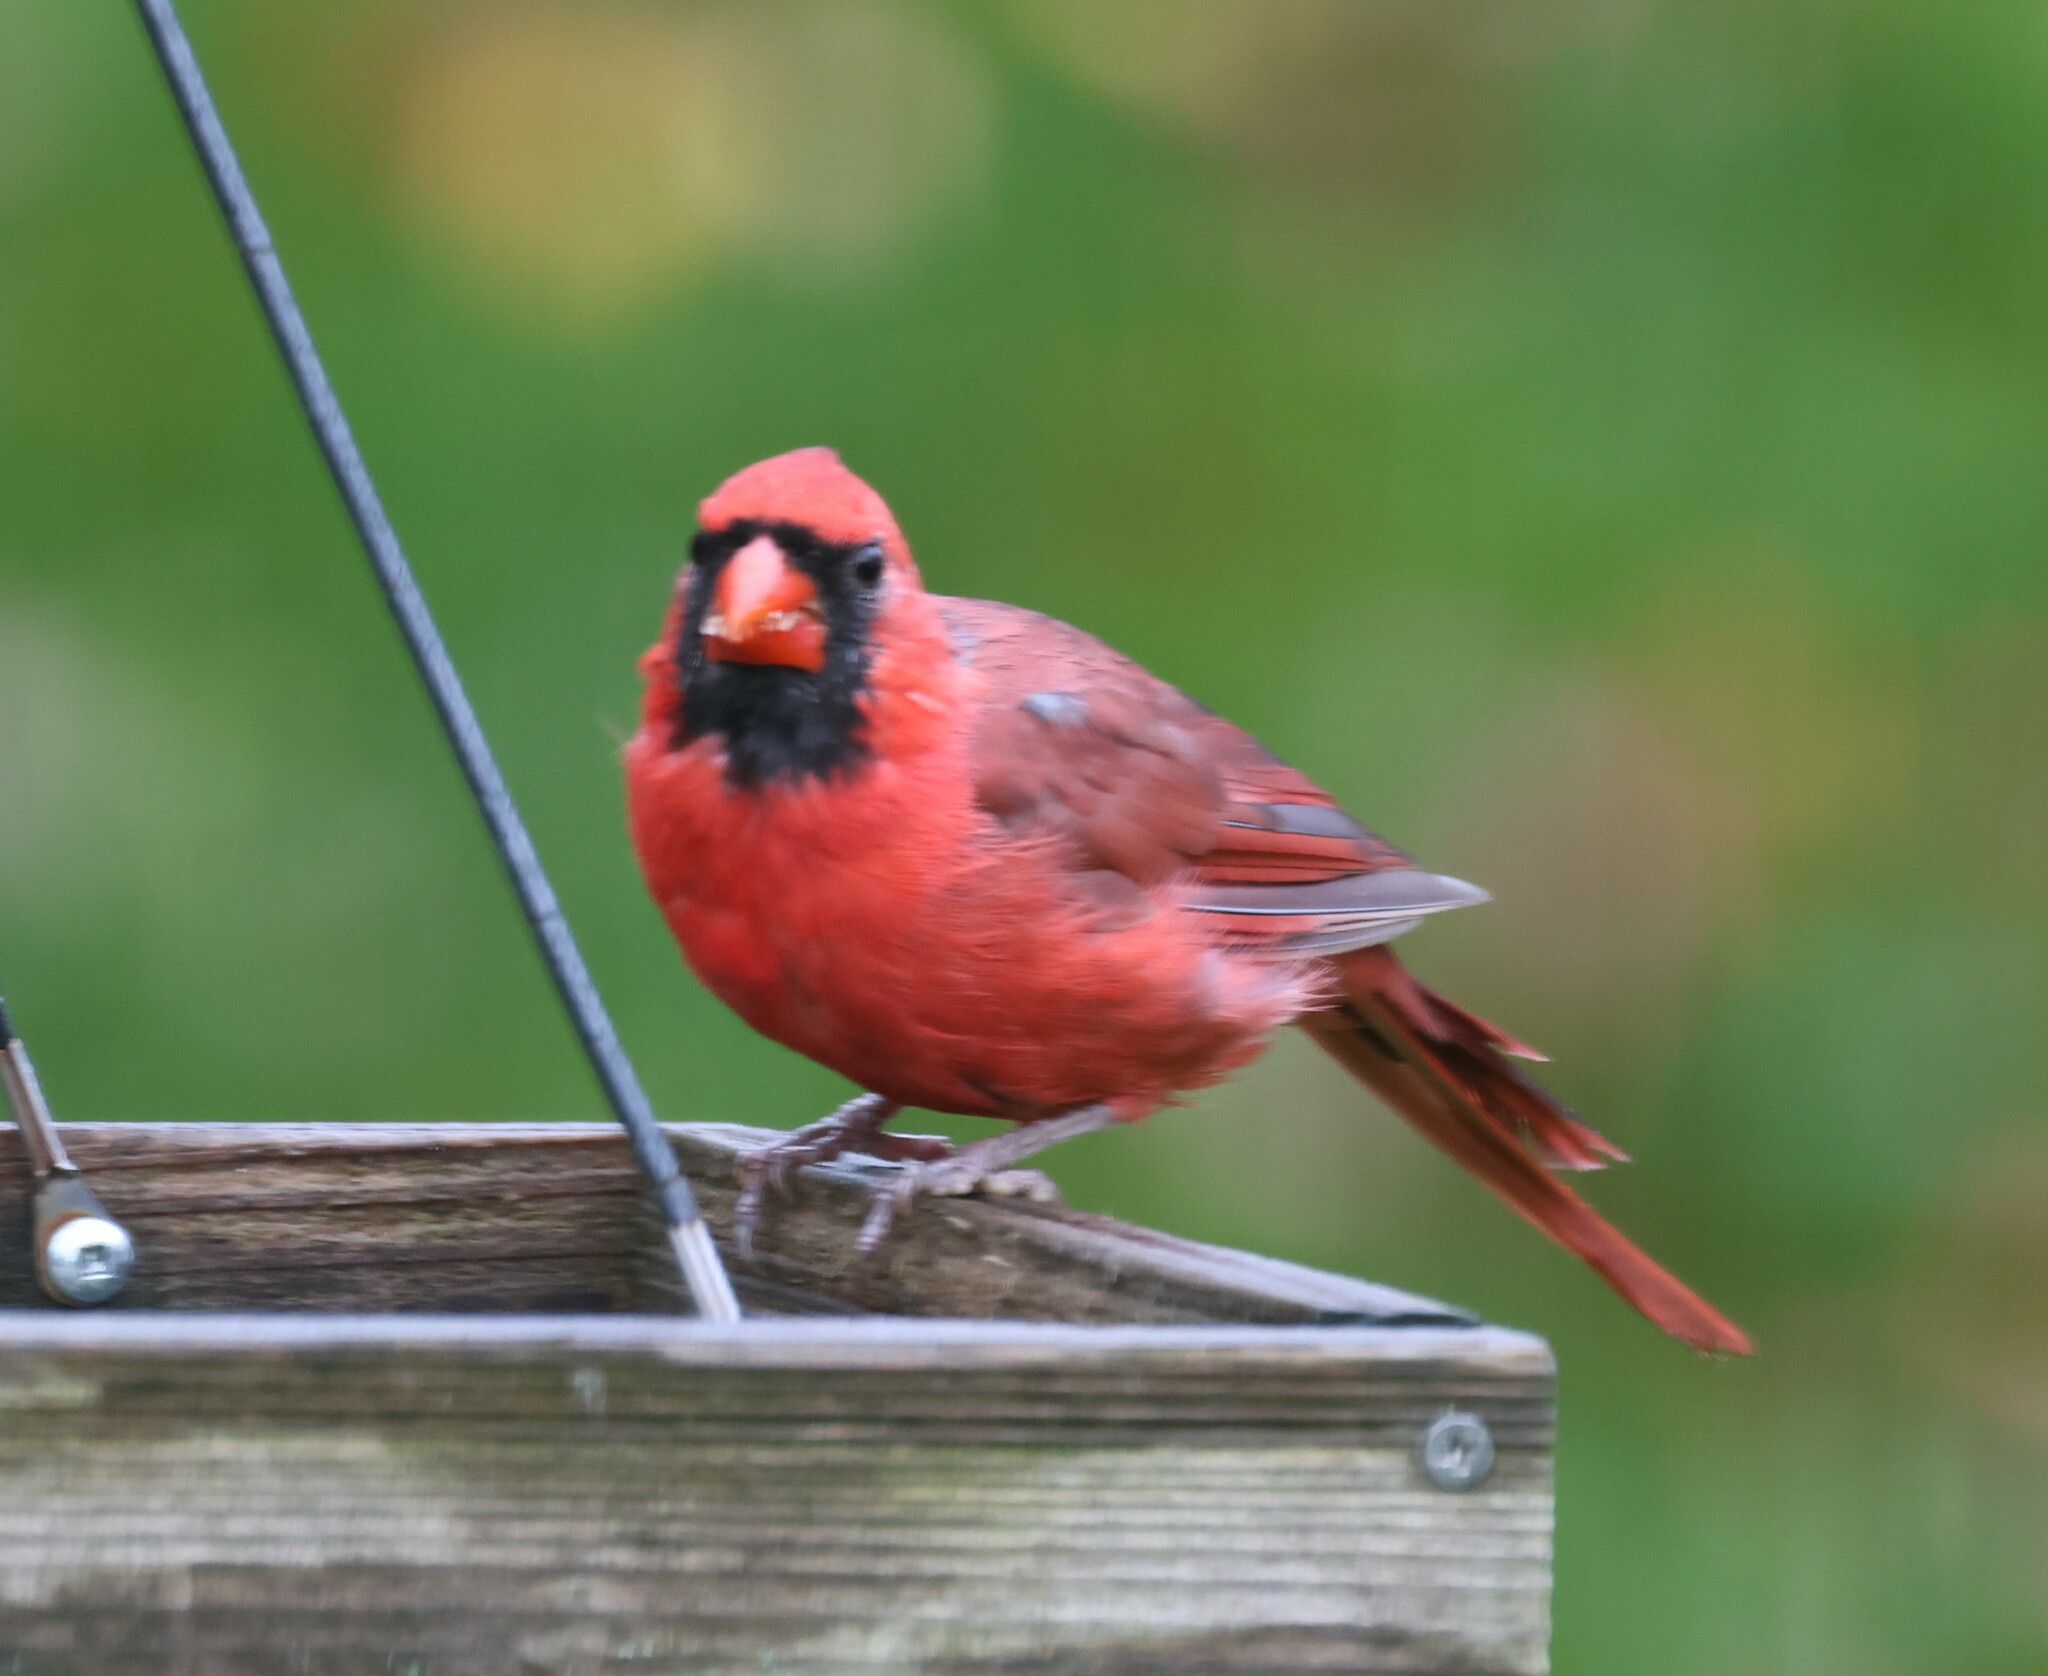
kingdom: Animalia
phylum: Chordata
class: Aves
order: Passeriformes
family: Cardinalidae
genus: Cardinalis
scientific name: Cardinalis cardinalis
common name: Northern cardinal
